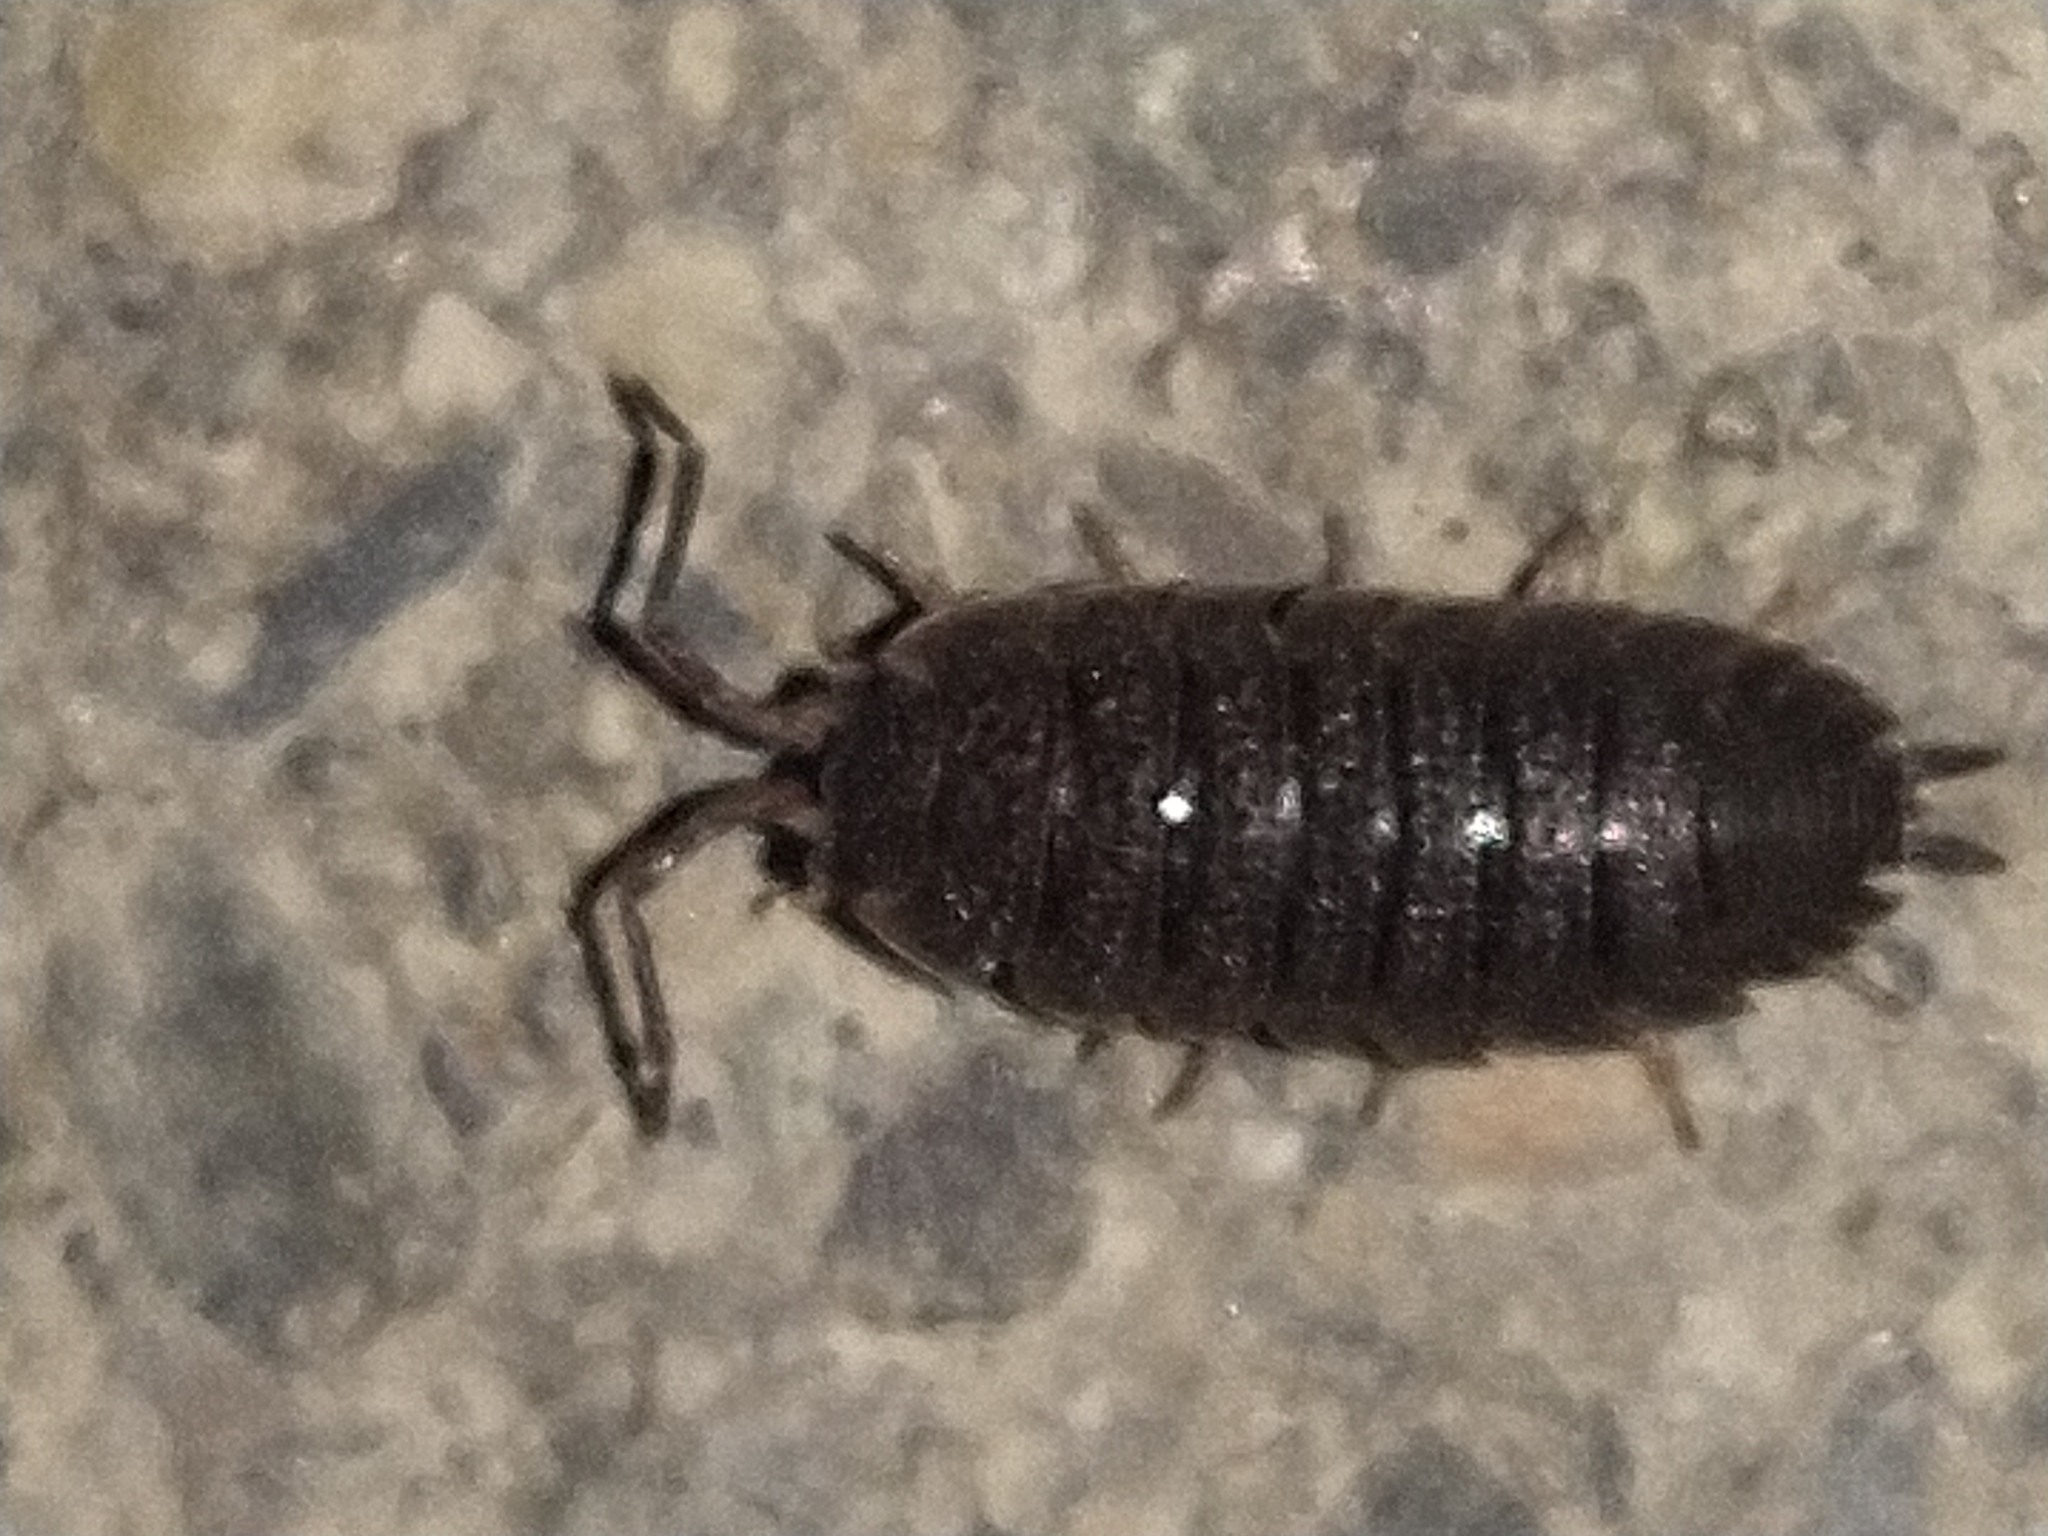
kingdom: Animalia
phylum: Arthropoda
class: Malacostraca
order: Isopoda
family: Porcellionidae
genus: Porcellio
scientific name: Porcellio scaber
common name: Common rough woodlouse
